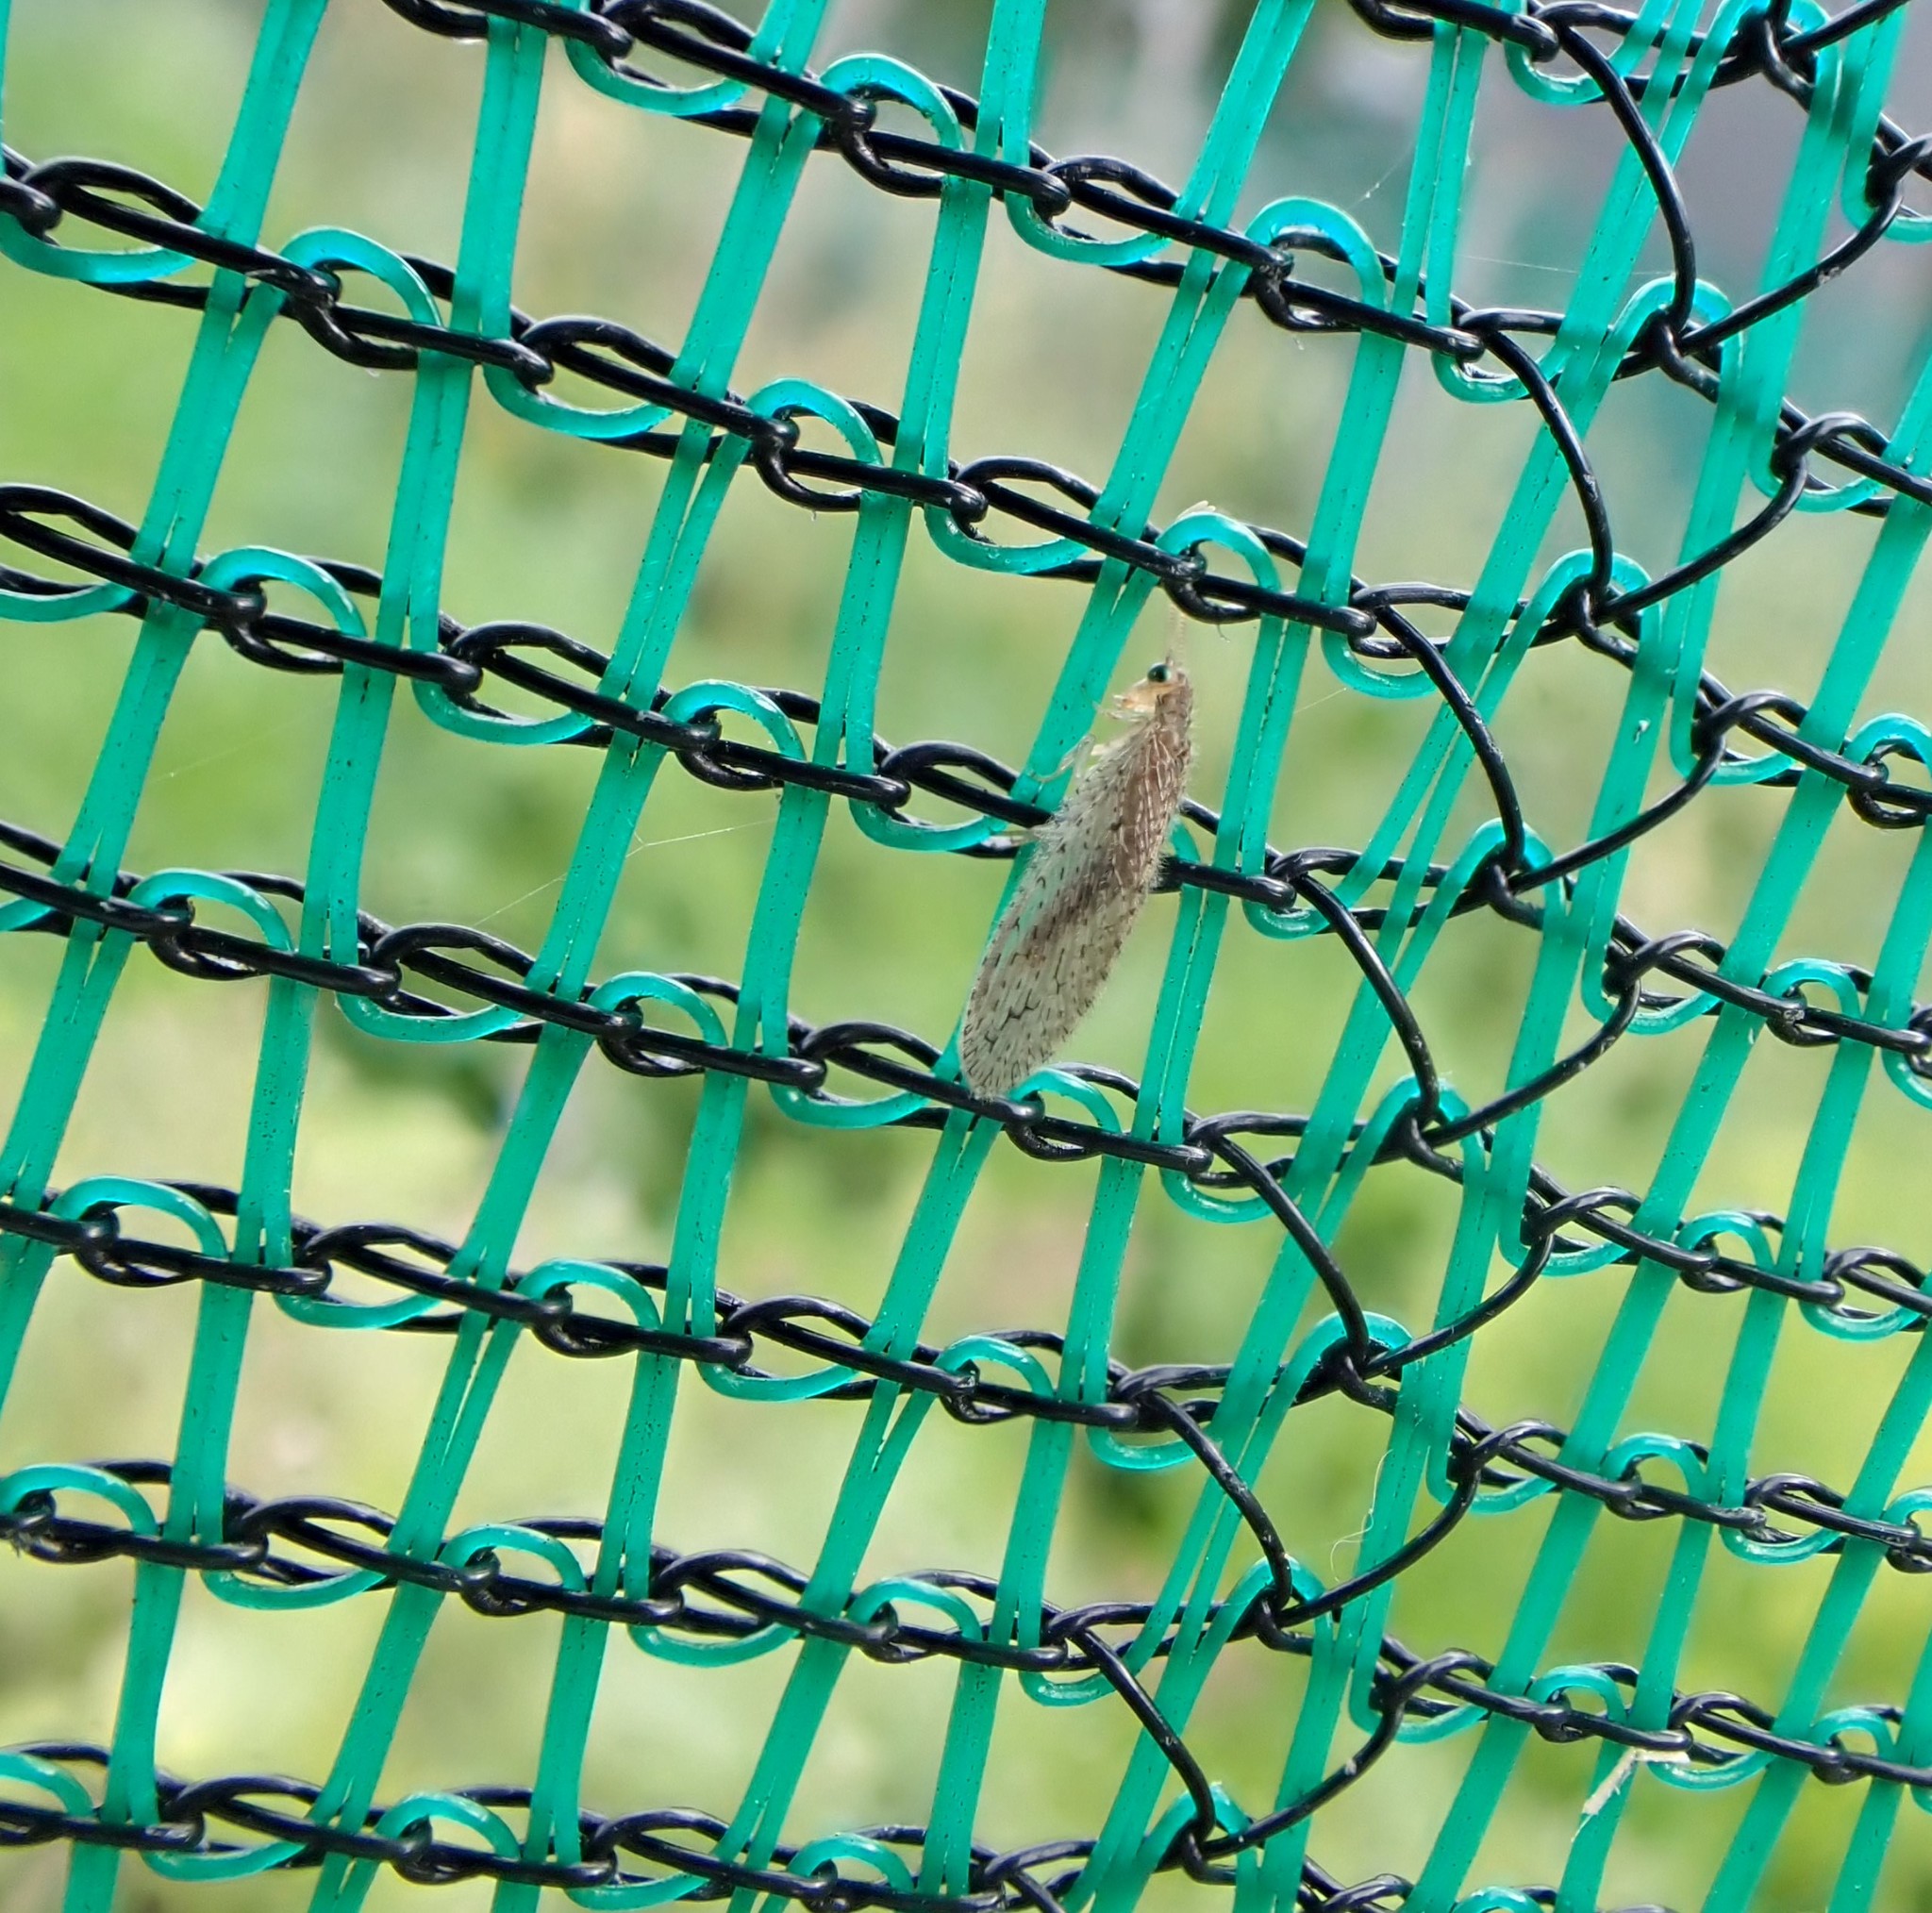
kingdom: Animalia
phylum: Arthropoda
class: Insecta
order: Neuroptera
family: Hemerobiidae
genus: Micromus
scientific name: Micromus tasmaniae
